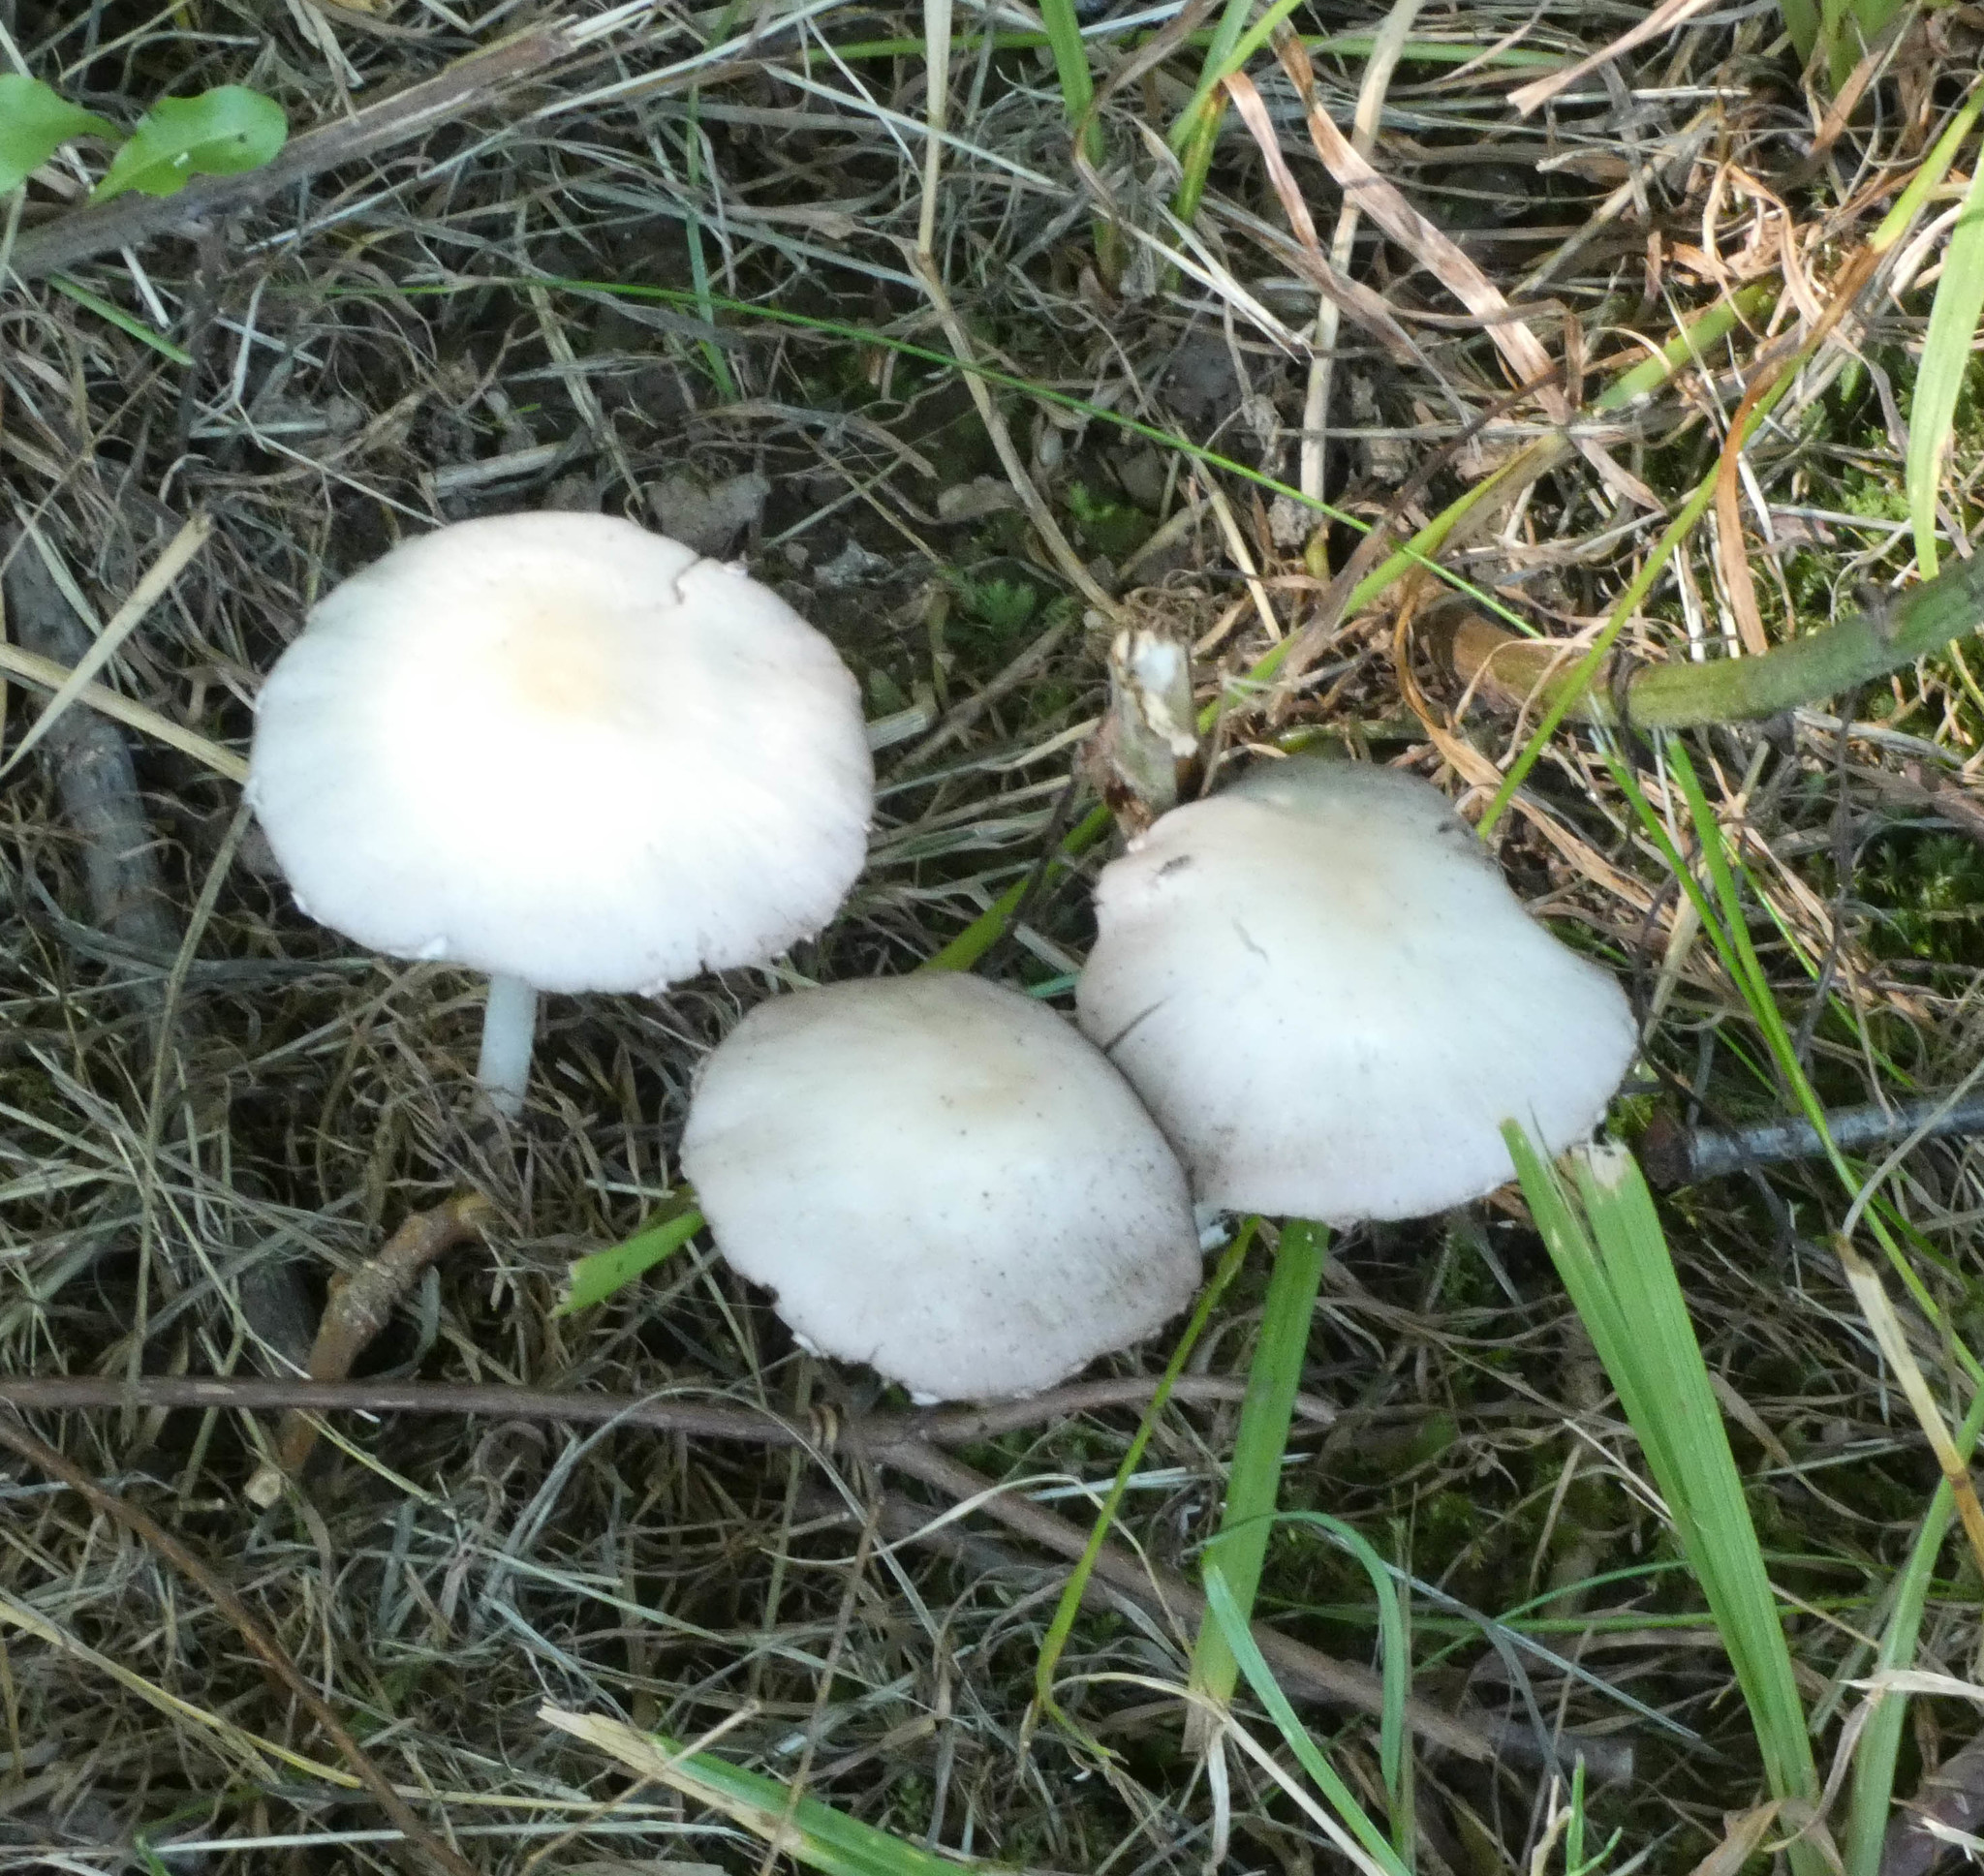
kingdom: Fungi
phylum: Basidiomycota
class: Agaricomycetes
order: Agaricales
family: Psathyrellaceae
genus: Psathyrella
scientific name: Psathyrella
